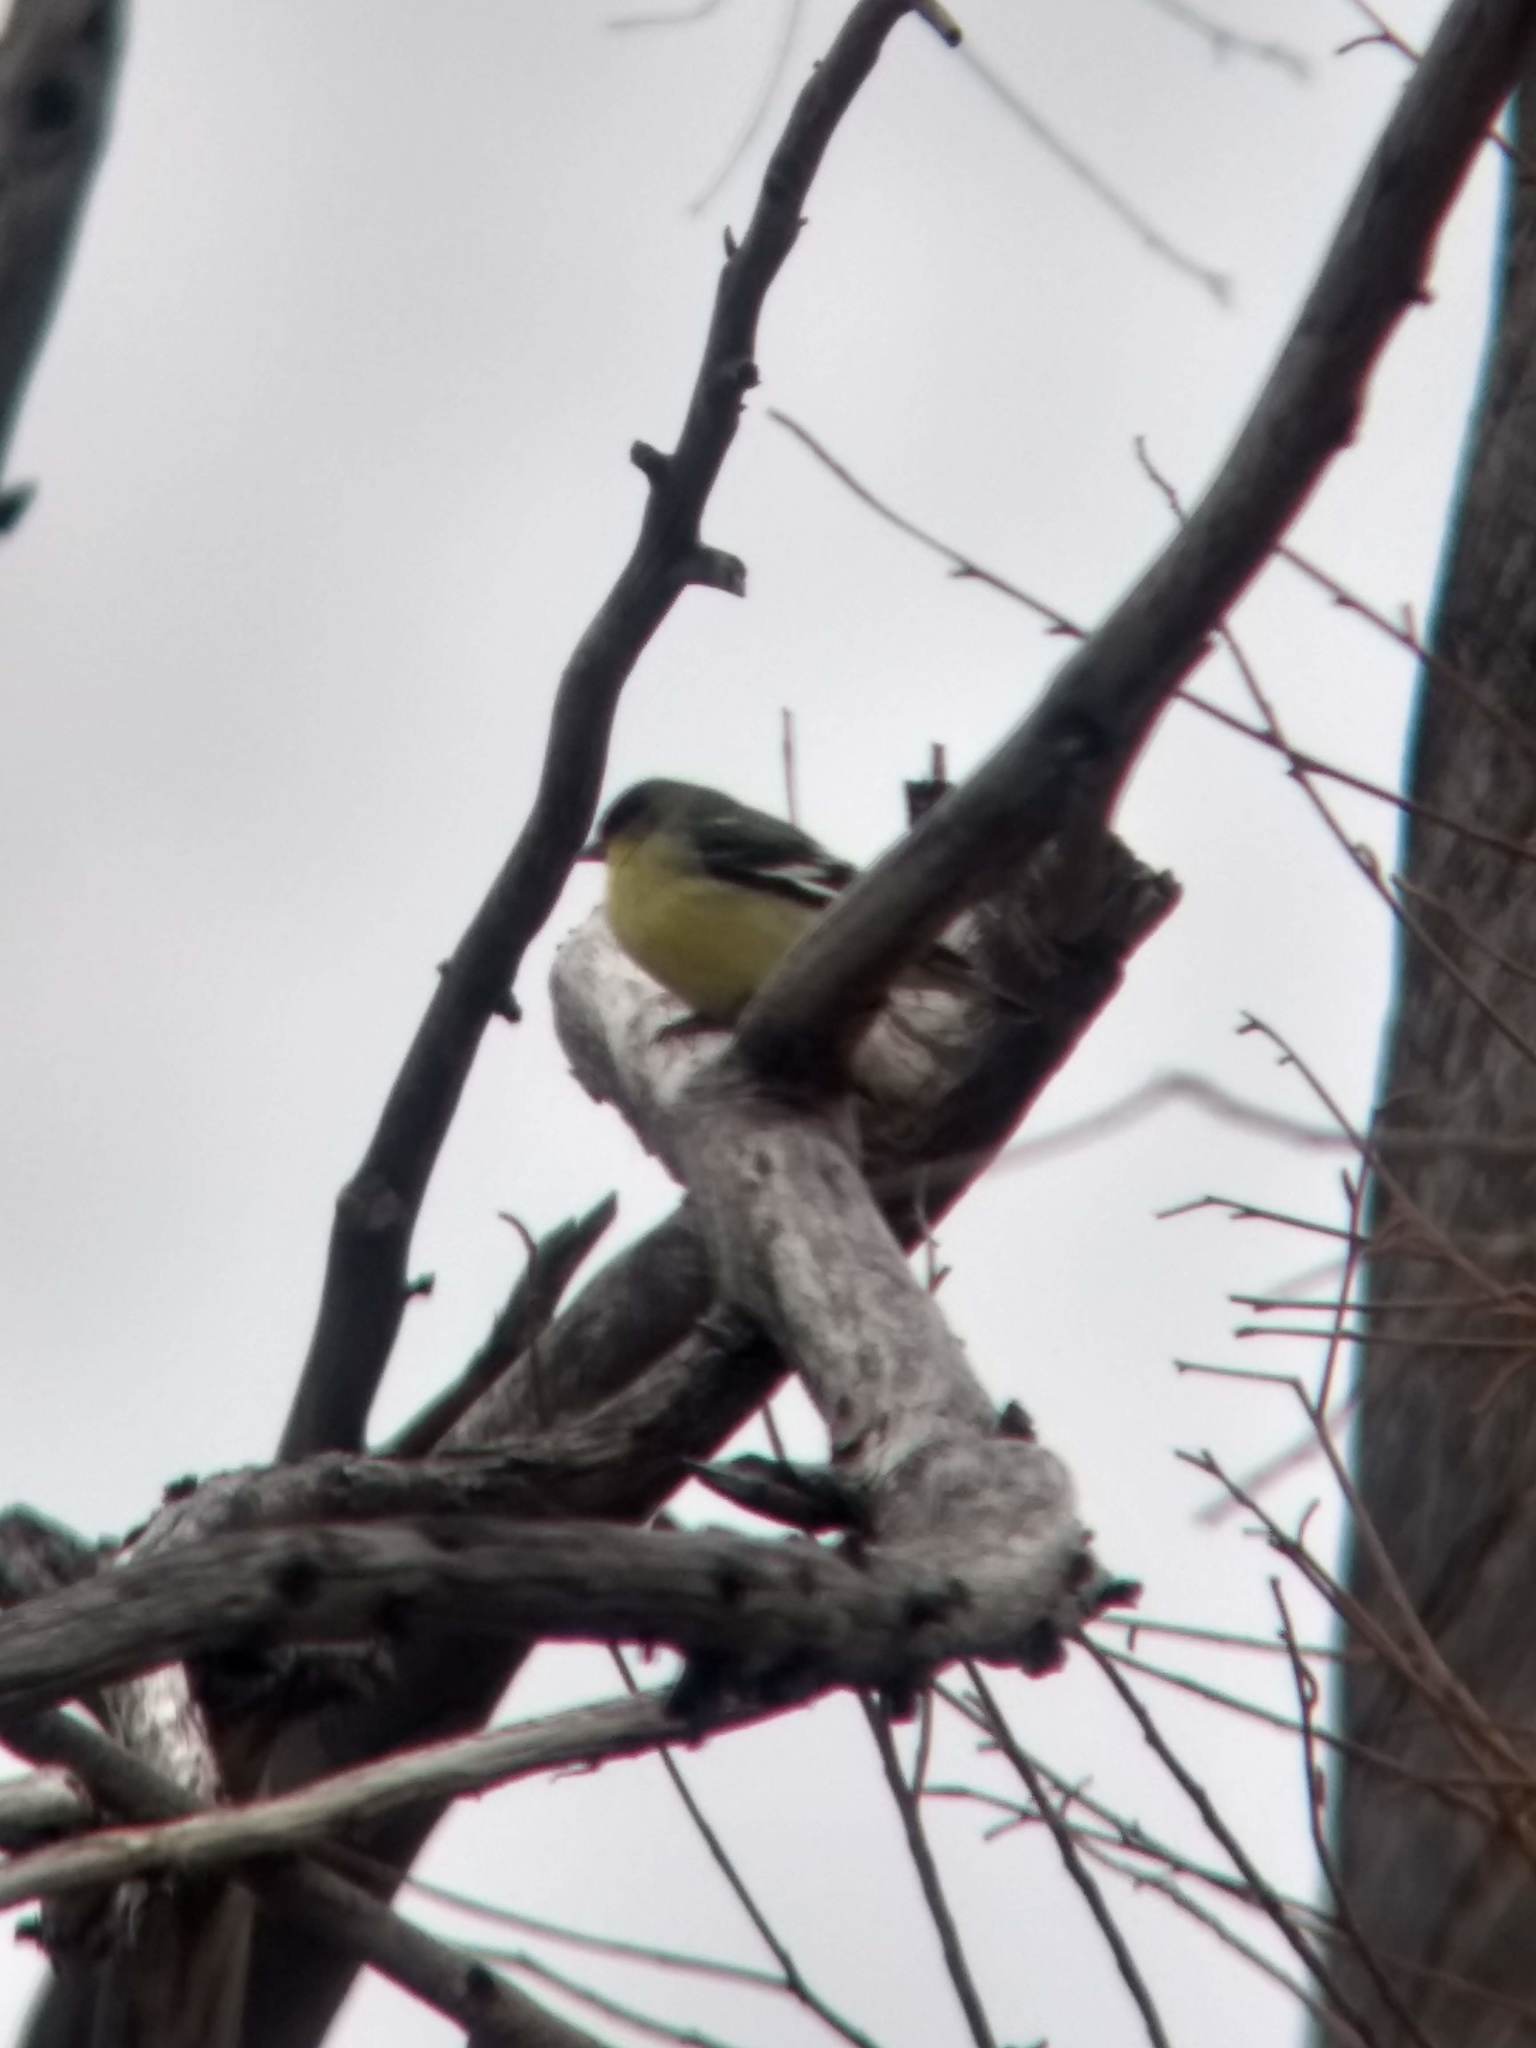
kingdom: Animalia
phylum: Chordata
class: Aves
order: Passeriformes
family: Fringillidae
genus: Spinus
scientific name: Spinus psaltria
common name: Lesser goldfinch
